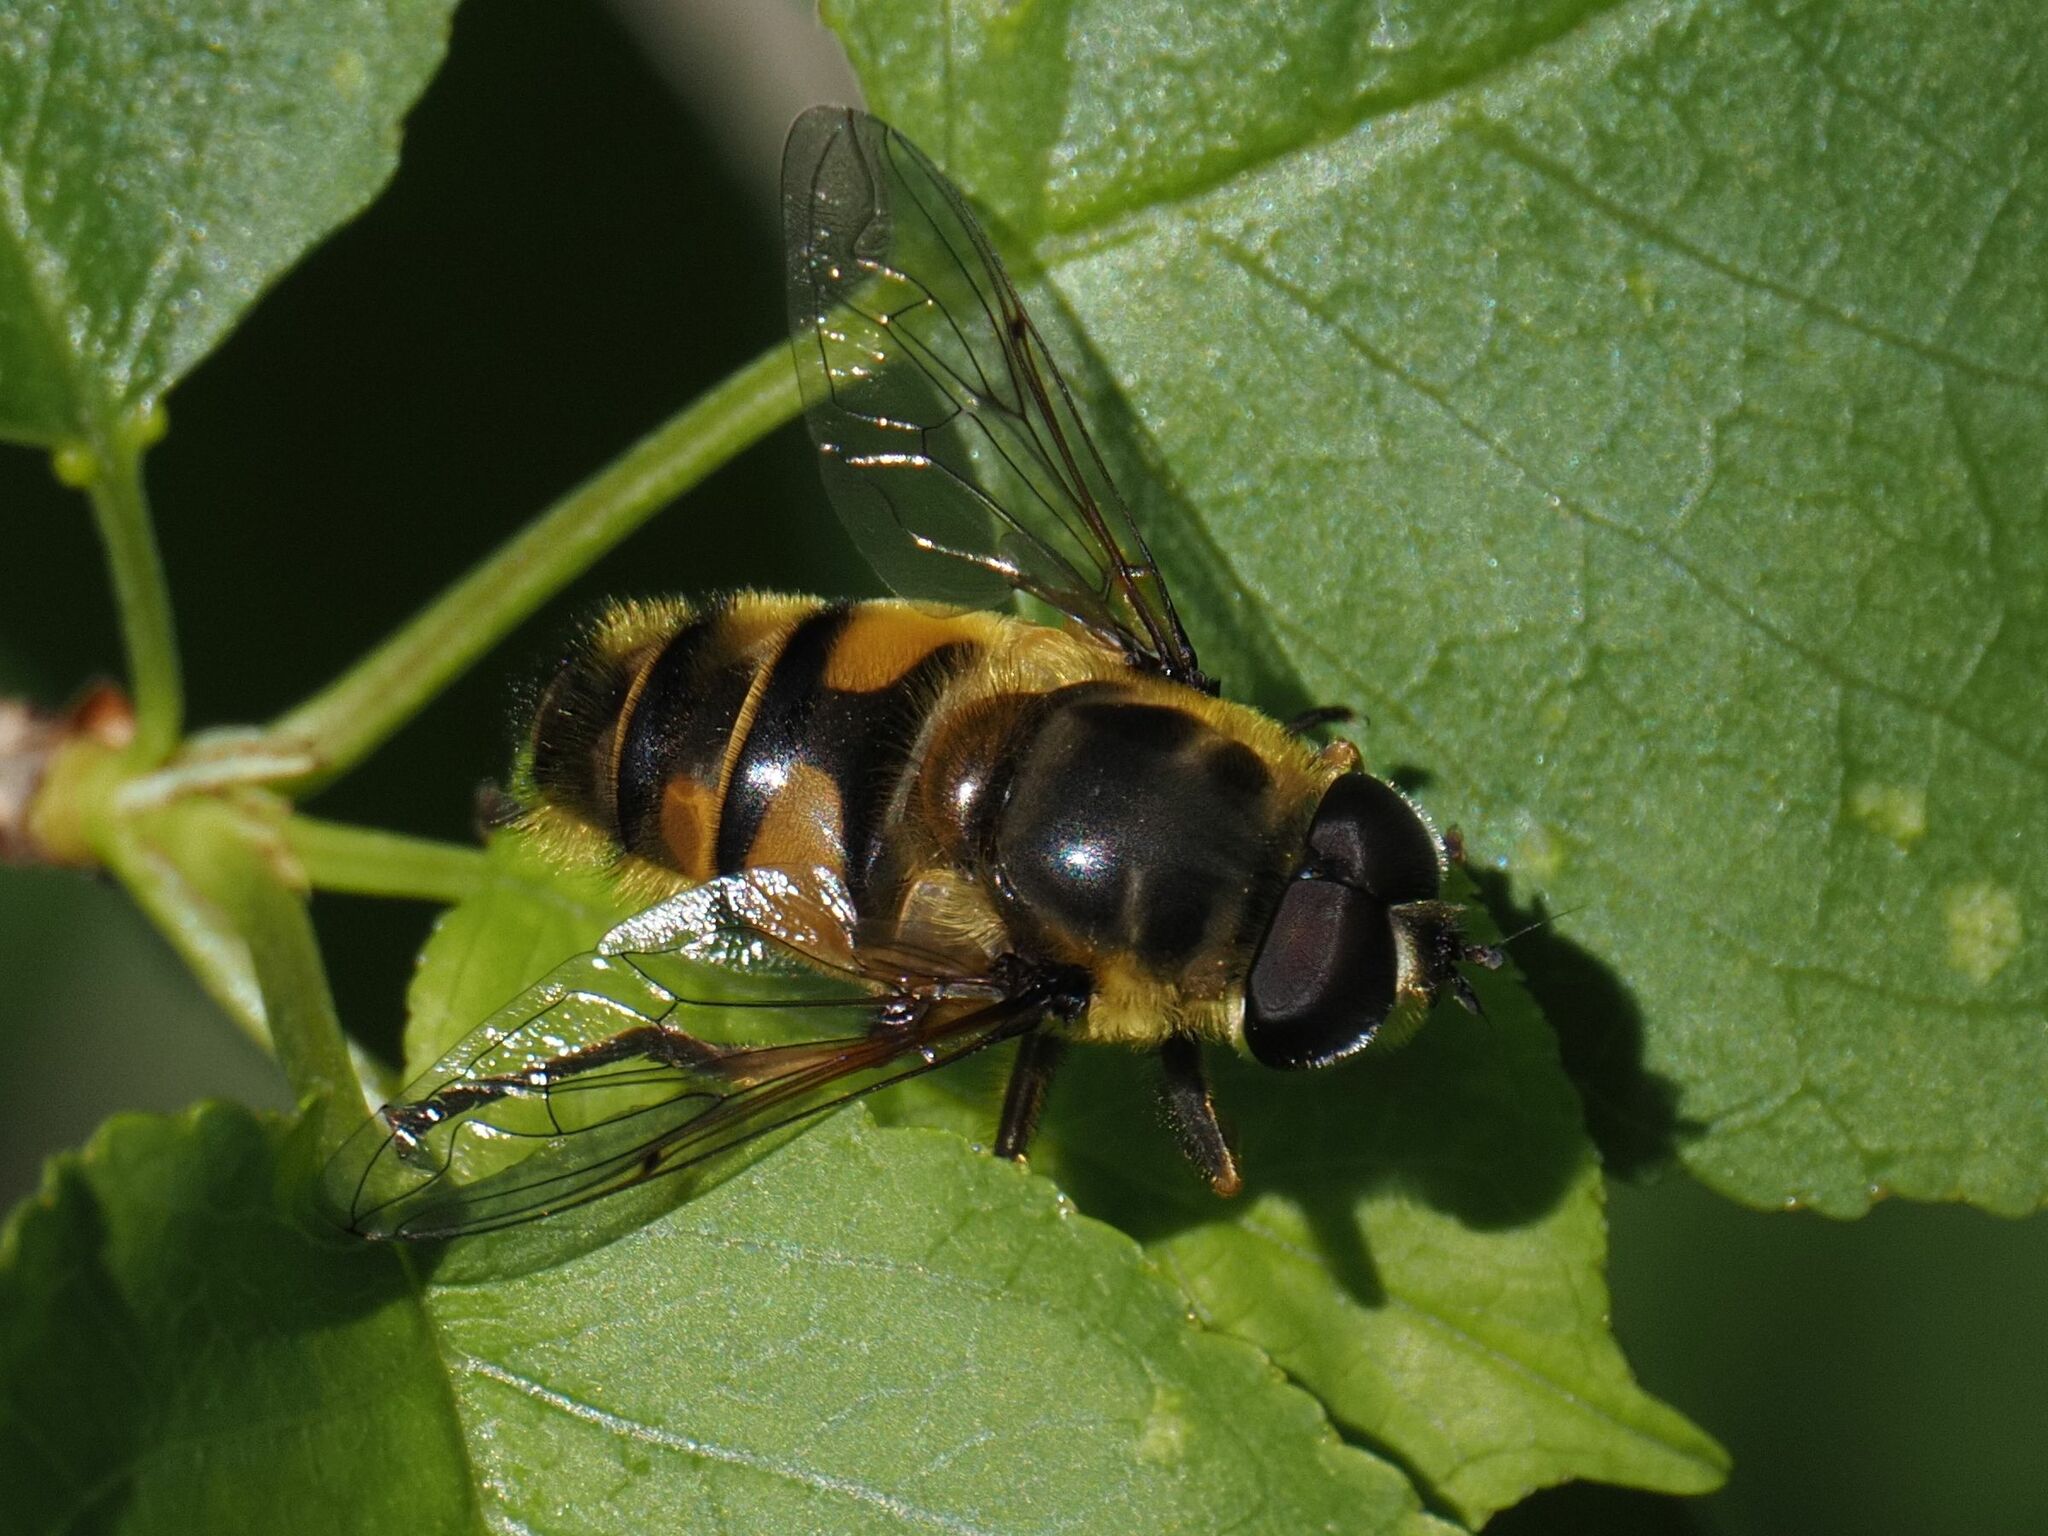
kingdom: Animalia
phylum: Arthropoda
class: Insecta
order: Diptera
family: Syrphidae
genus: Myathropa
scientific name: Myathropa florea
